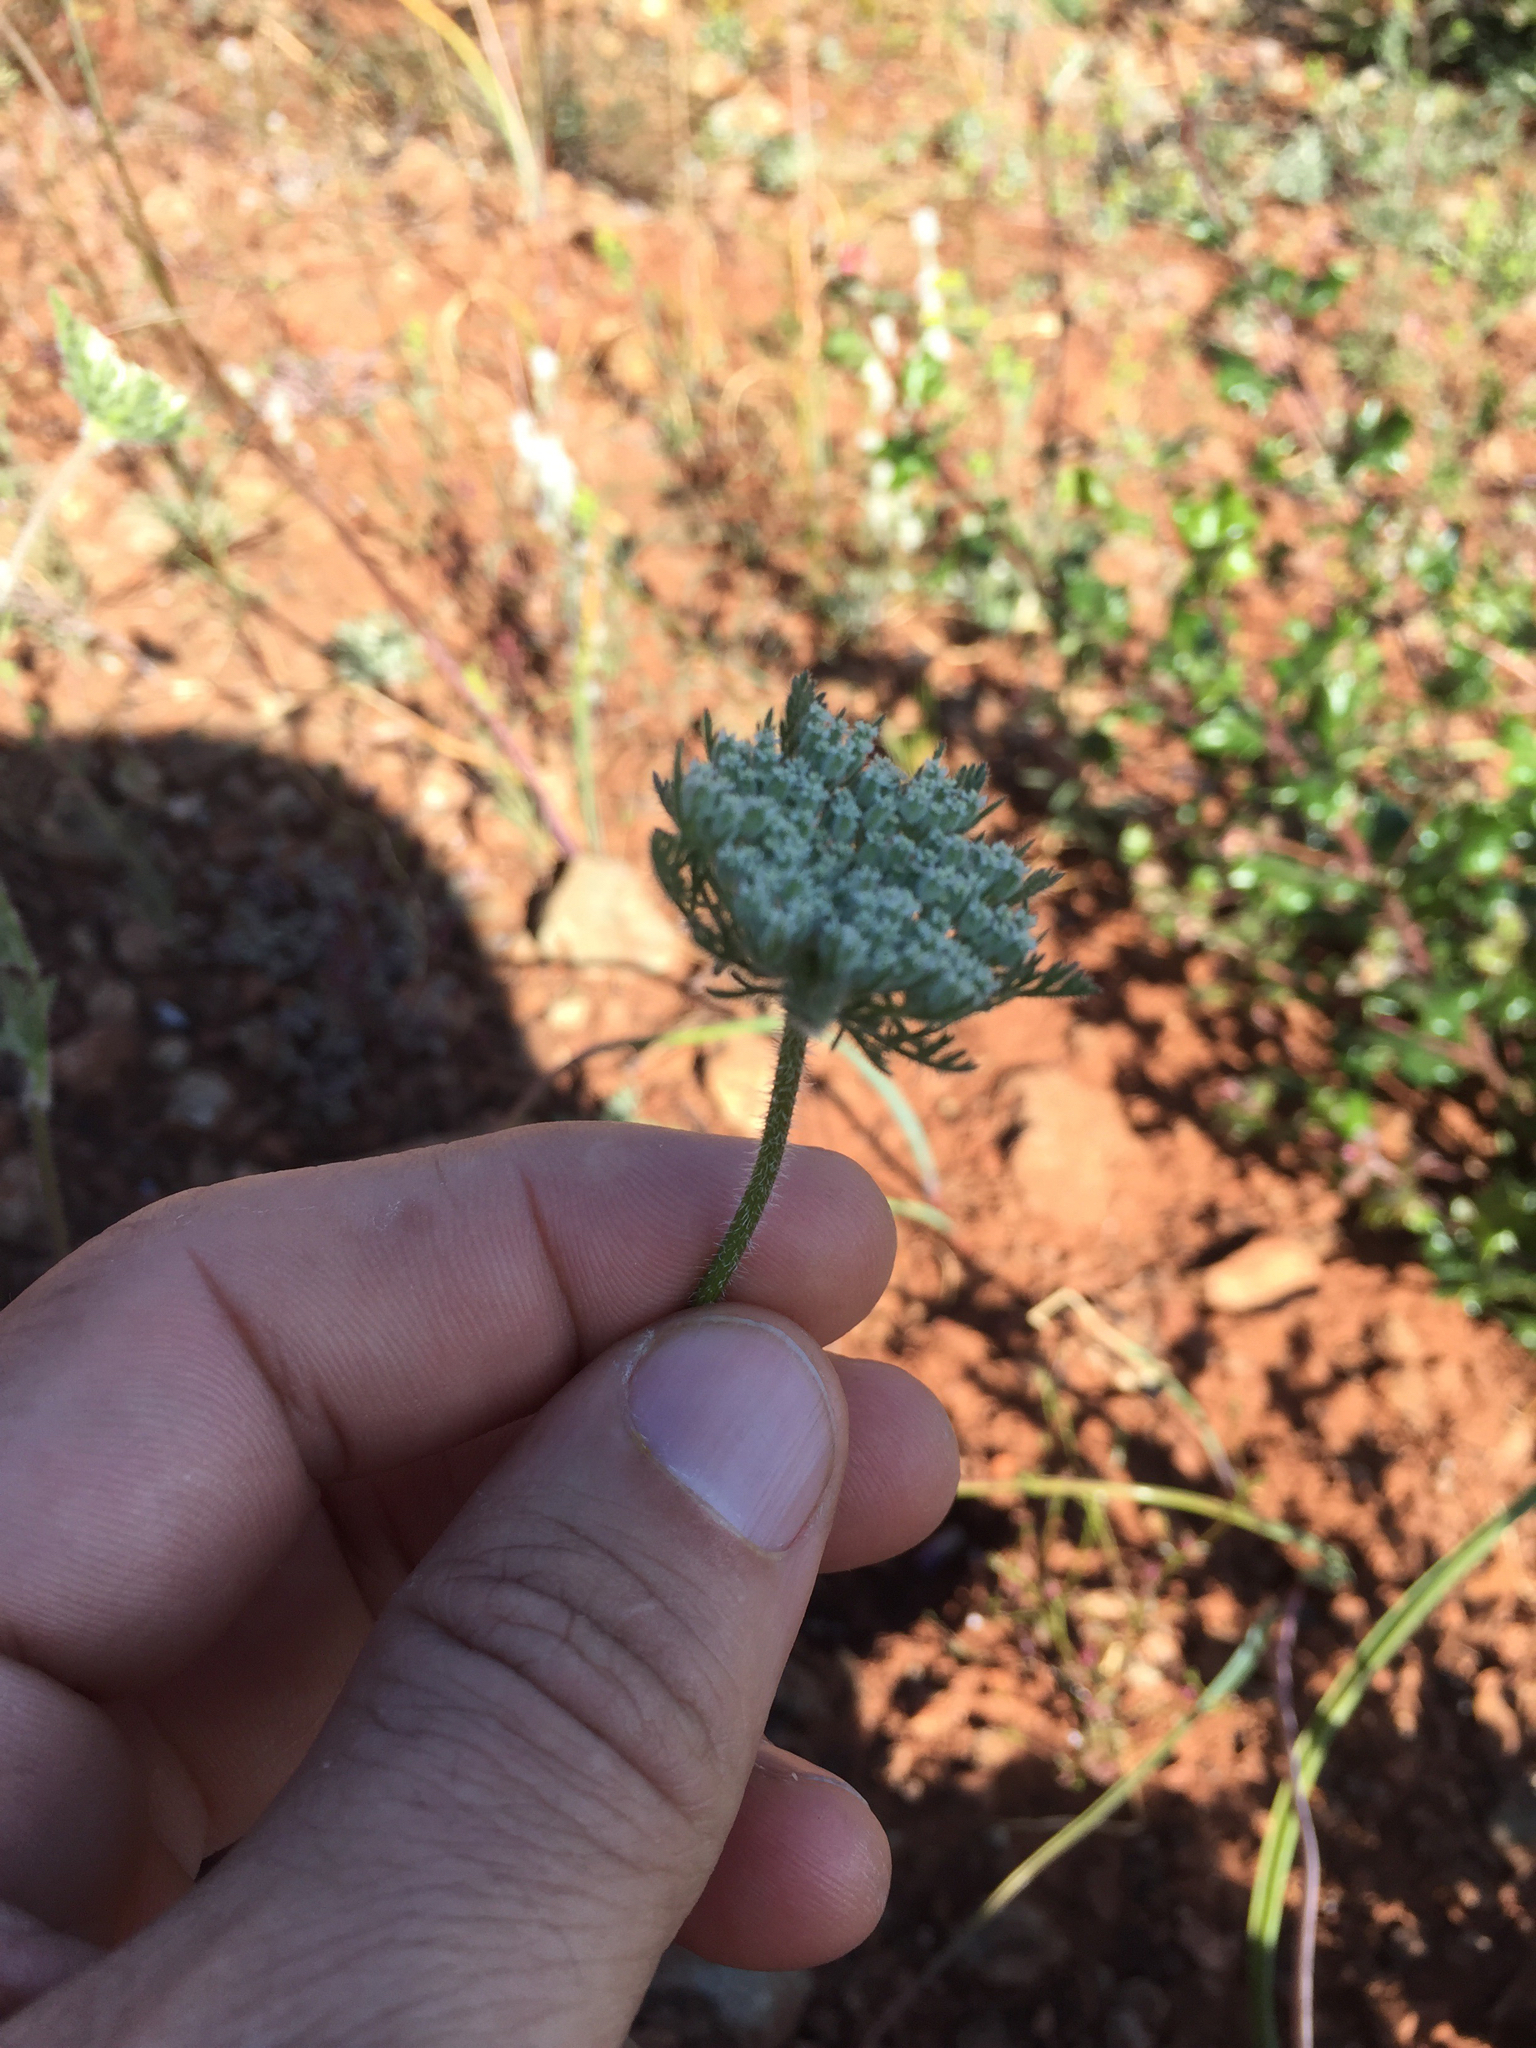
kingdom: Plantae
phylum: Tracheophyta
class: Magnoliopsida
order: Apiales
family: Apiaceae
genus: Daucus
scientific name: Daucus pusillus
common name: Southwest wild carrot
